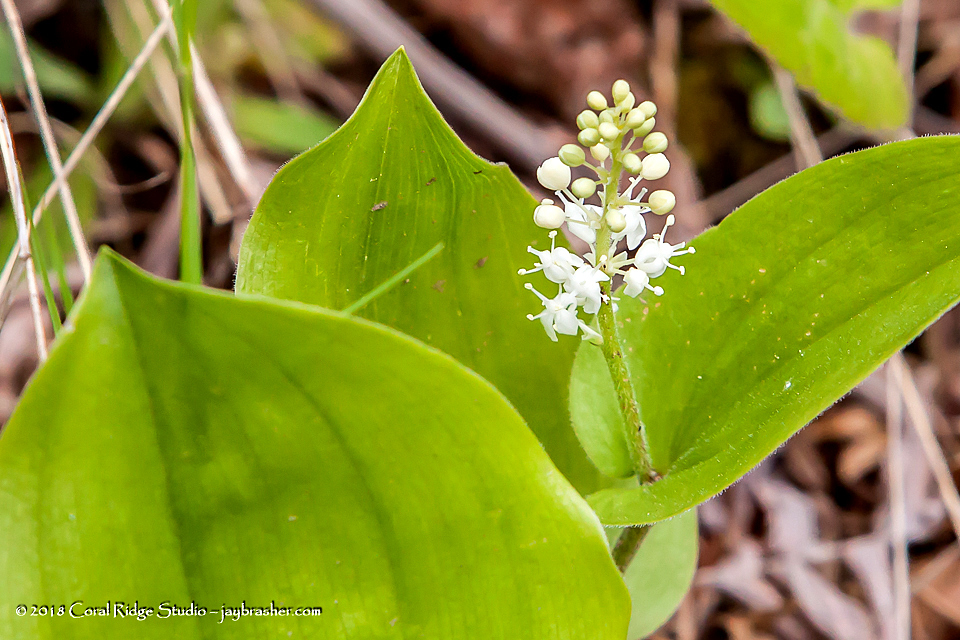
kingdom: Plantae
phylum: Tracheophyta
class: Liliopsida
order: Asparagales
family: Asparagaceae
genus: Maianthemum
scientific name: Maianthemum canadense
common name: False lily-of-the-valley
